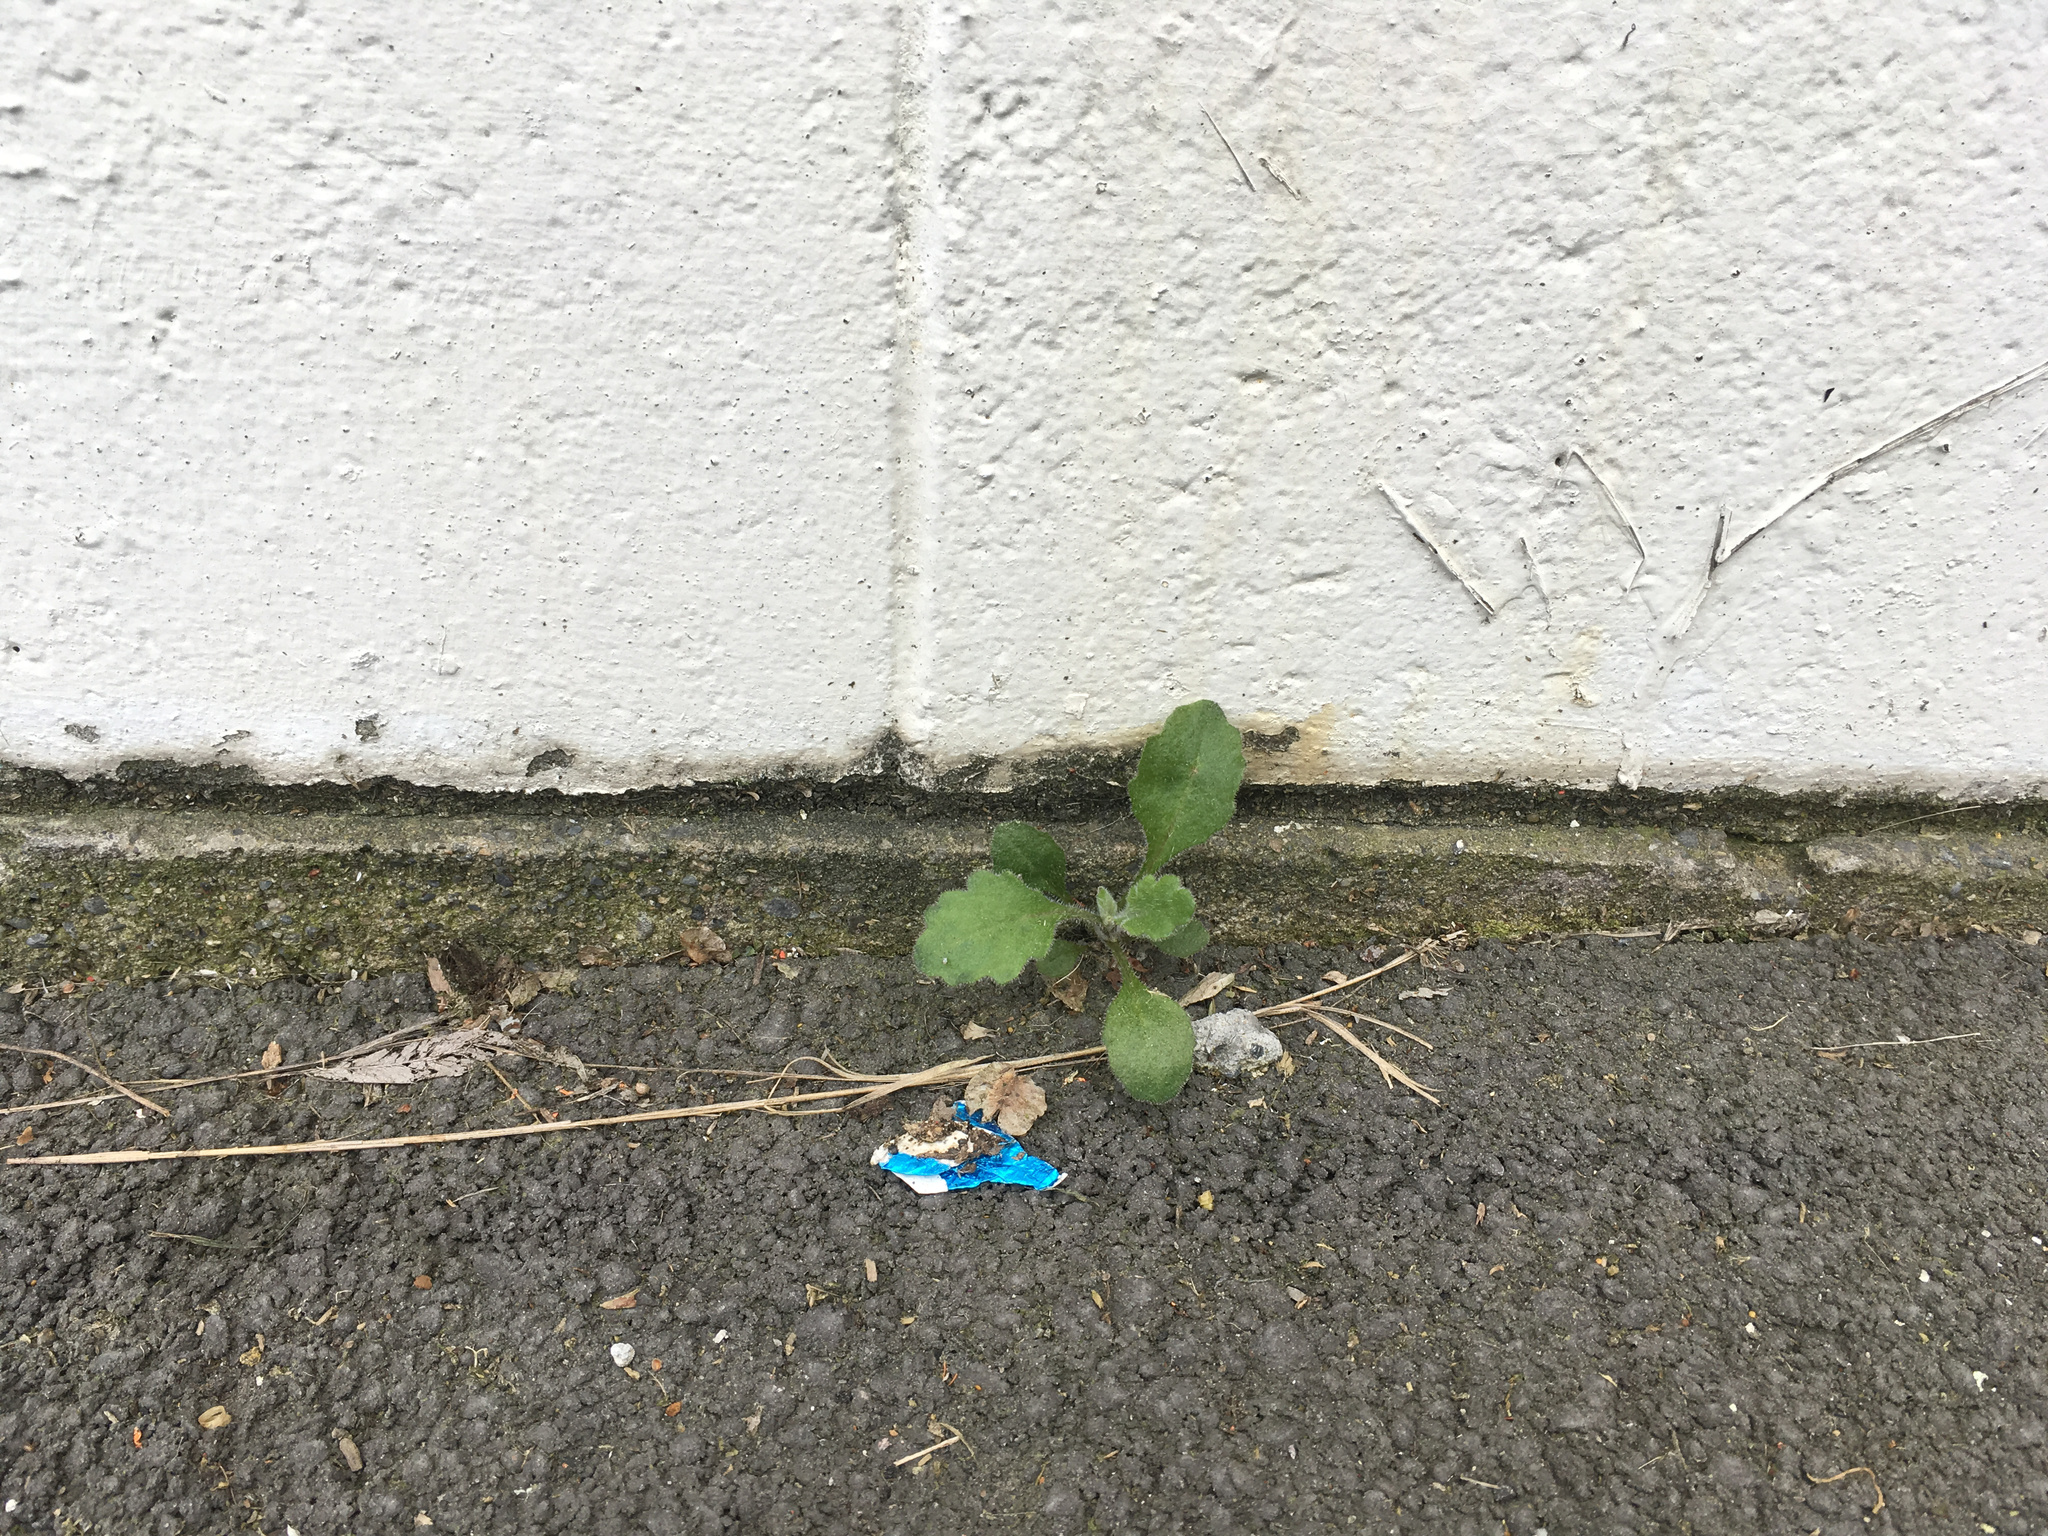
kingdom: Plantae
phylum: Tracheophyta
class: Magnoliopsida
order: Asterales
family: Asteraceae
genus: Senecio
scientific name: Senecio glomeratus
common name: Cutleaf burnweed
